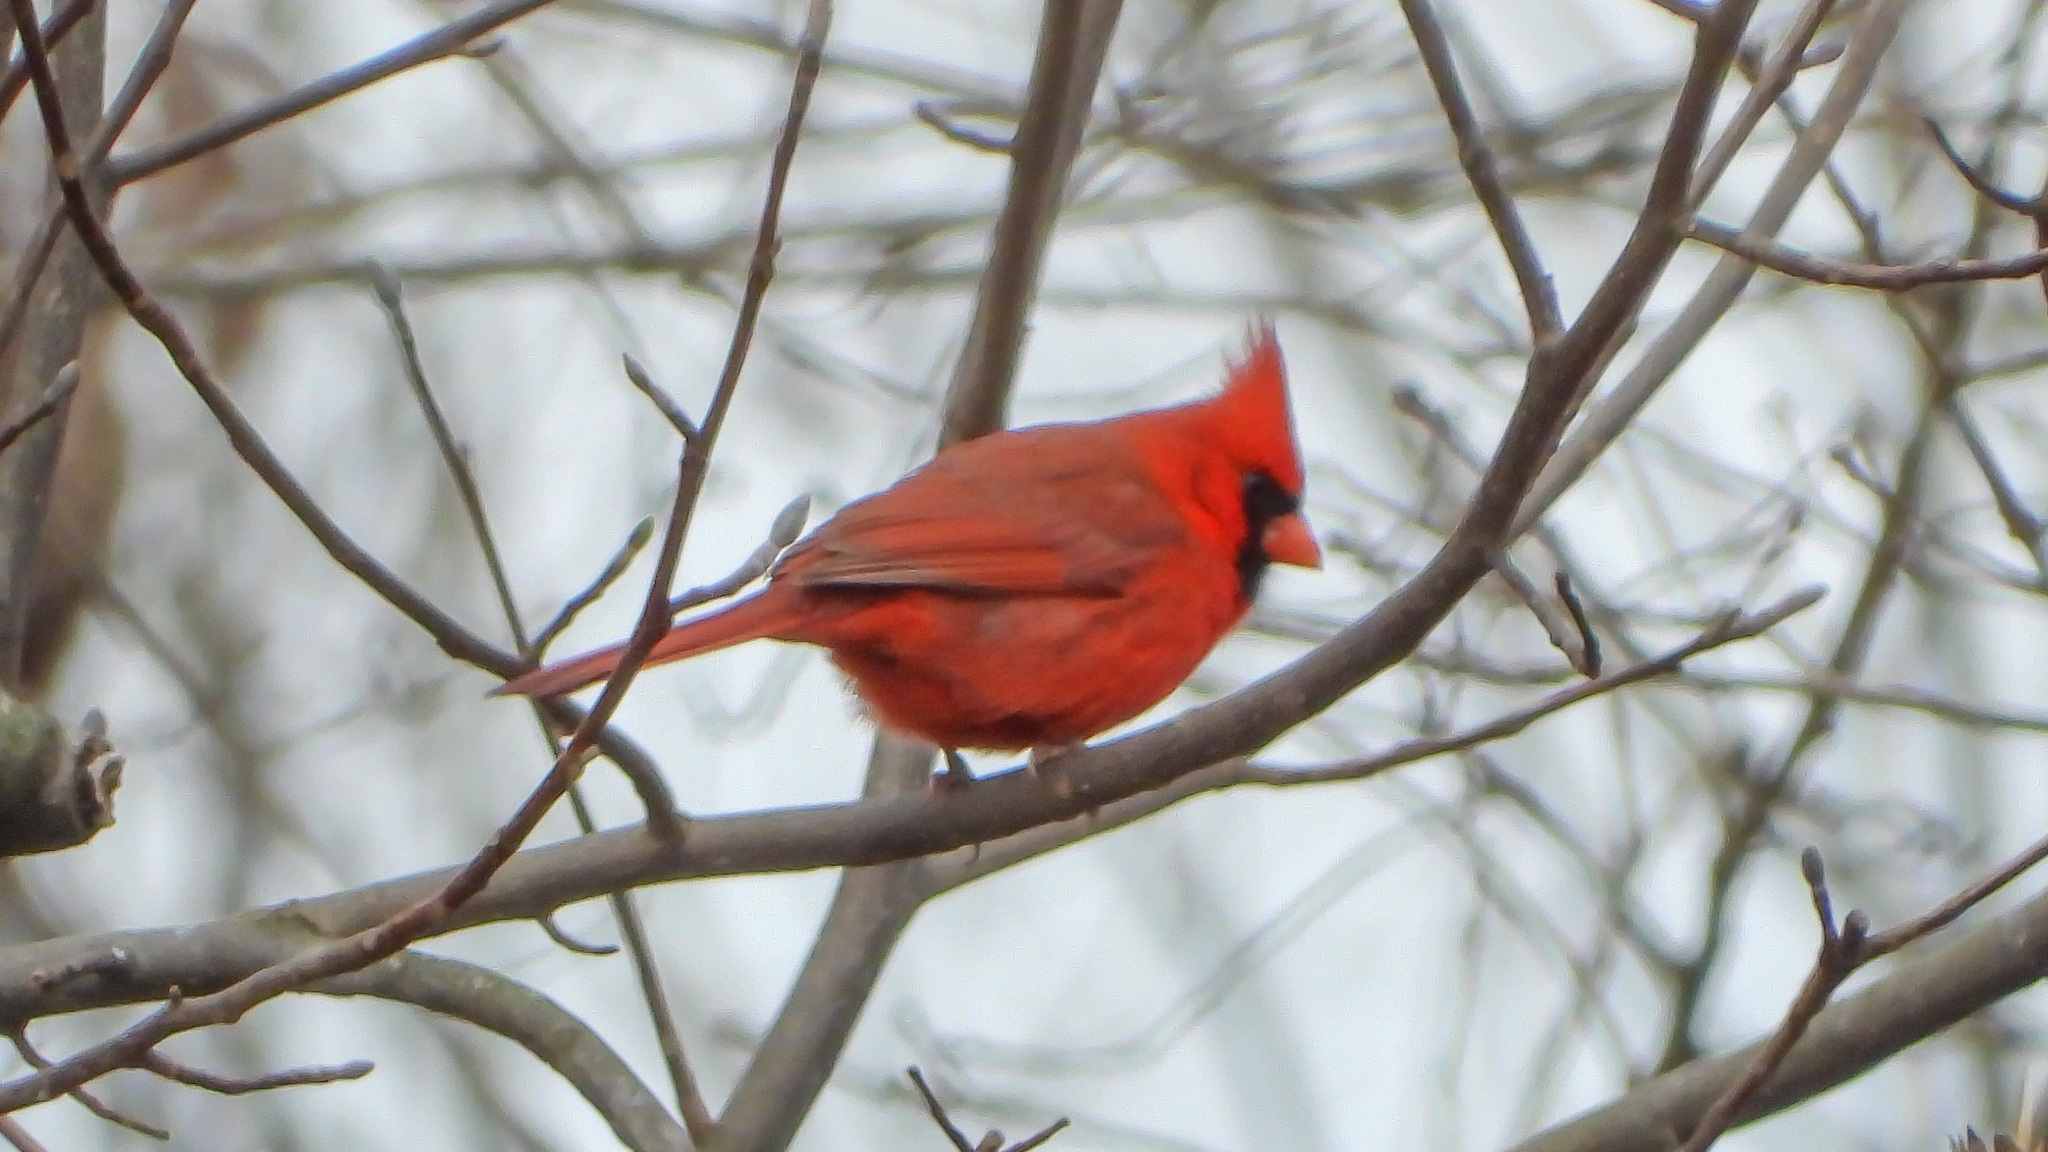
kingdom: Animalia
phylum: Chordata
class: Aves
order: Passeriformes
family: Cardinalidae
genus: Cardinalis
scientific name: Cardinalis cardinalis
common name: Northern cardinal
